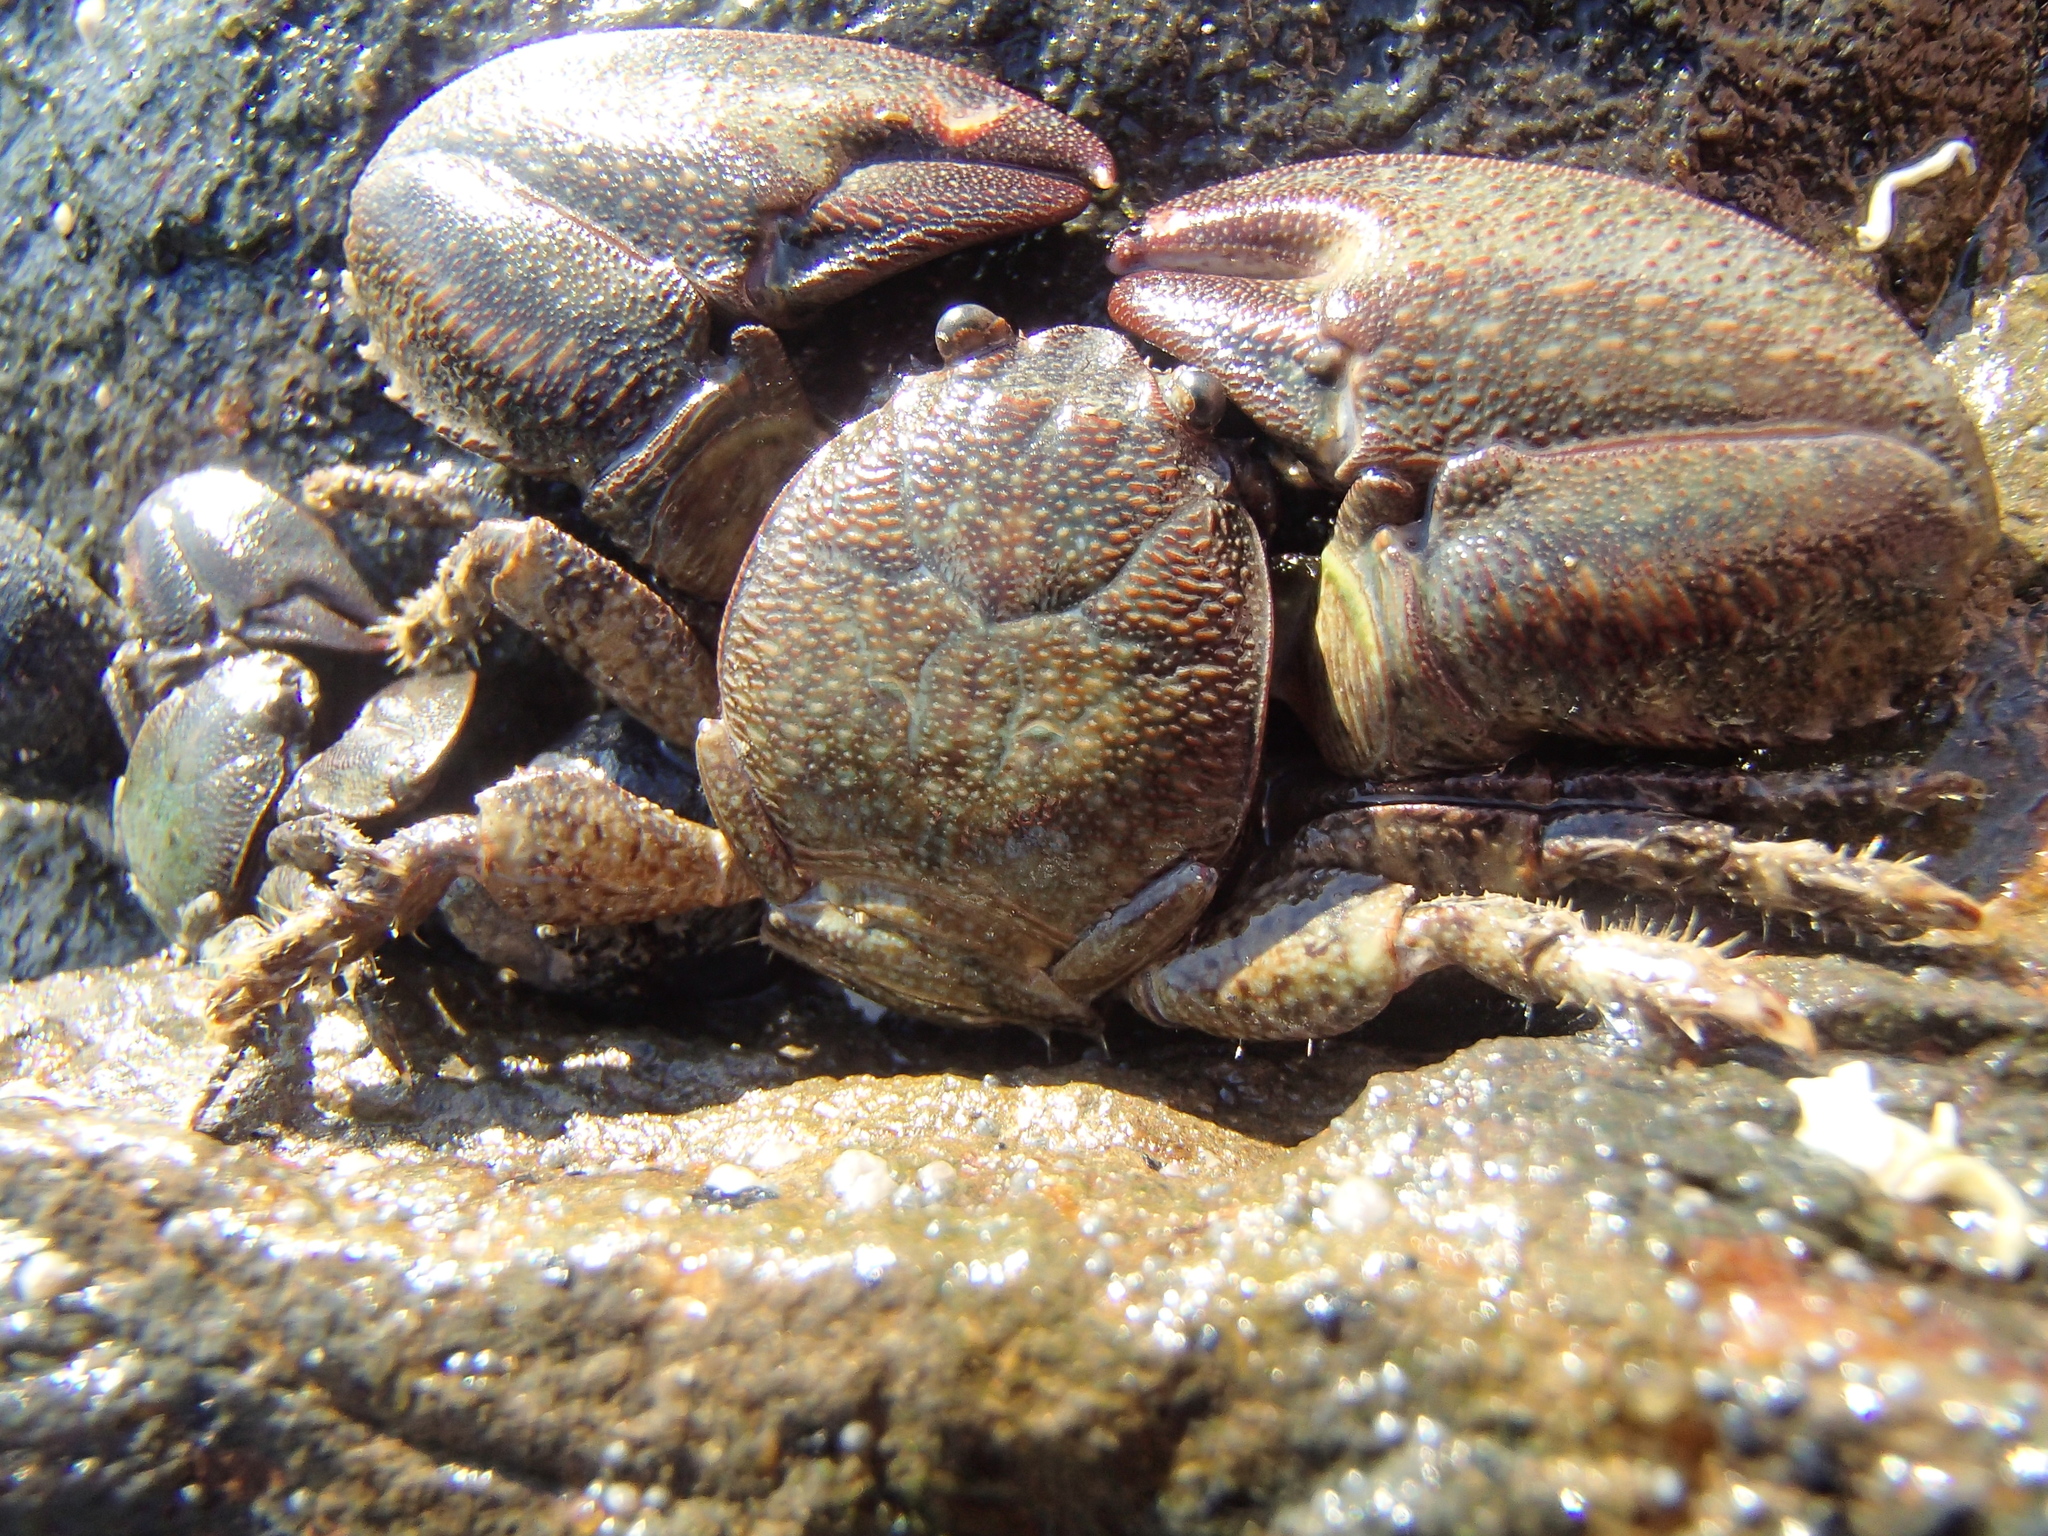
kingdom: Animalia
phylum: Arthropoda
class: Malacostraca
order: Decapoda
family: Porcellanidae
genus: Petrolisthes
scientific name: Petrolisthes elongatus
